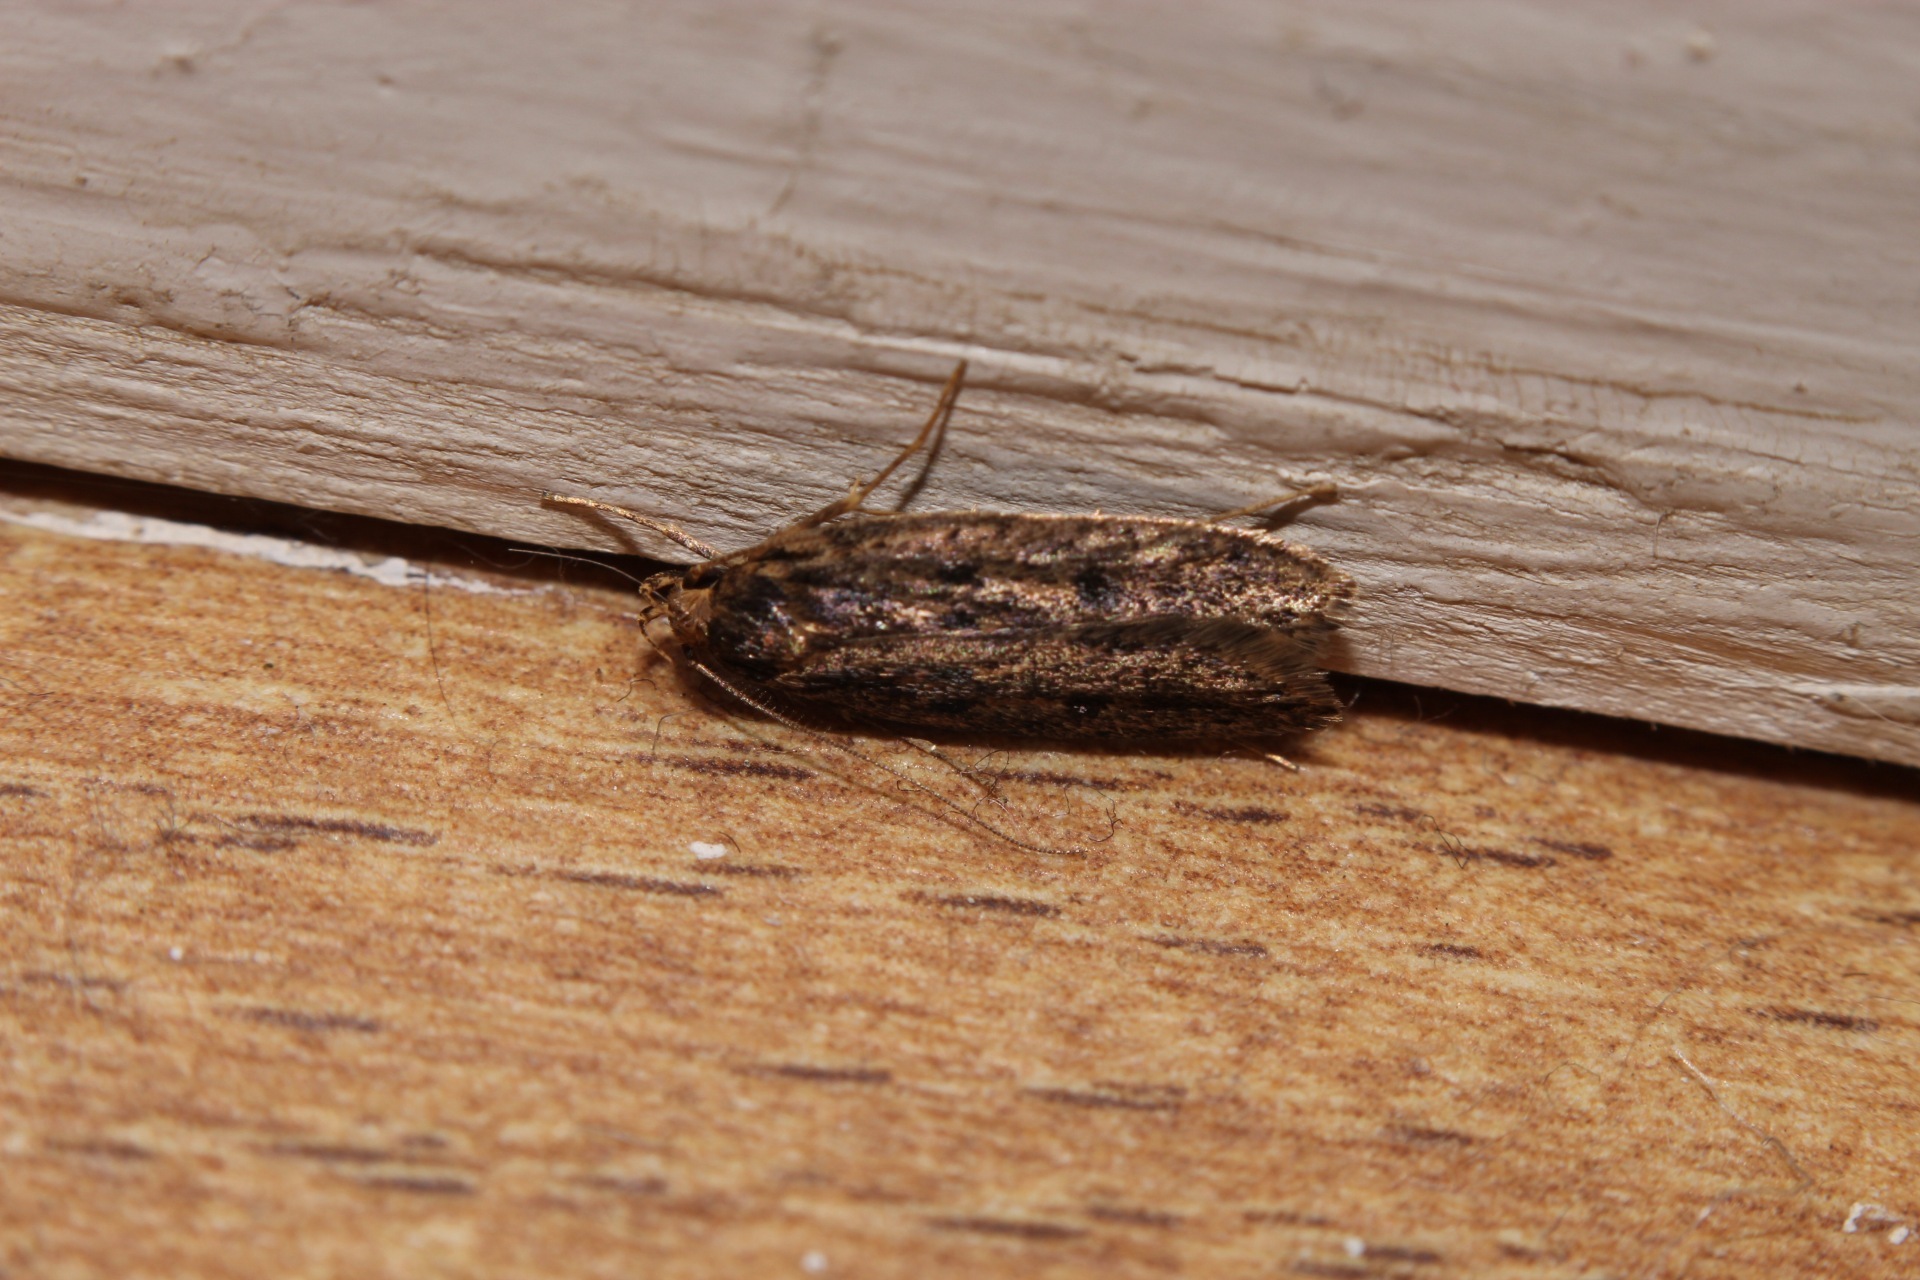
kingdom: Animalia
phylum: Arthropoda
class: Insecta
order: Lepidoptera
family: Oecophoridae
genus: Hofmannophila
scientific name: Hofmannophila pseudospretella
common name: Brown house moth
